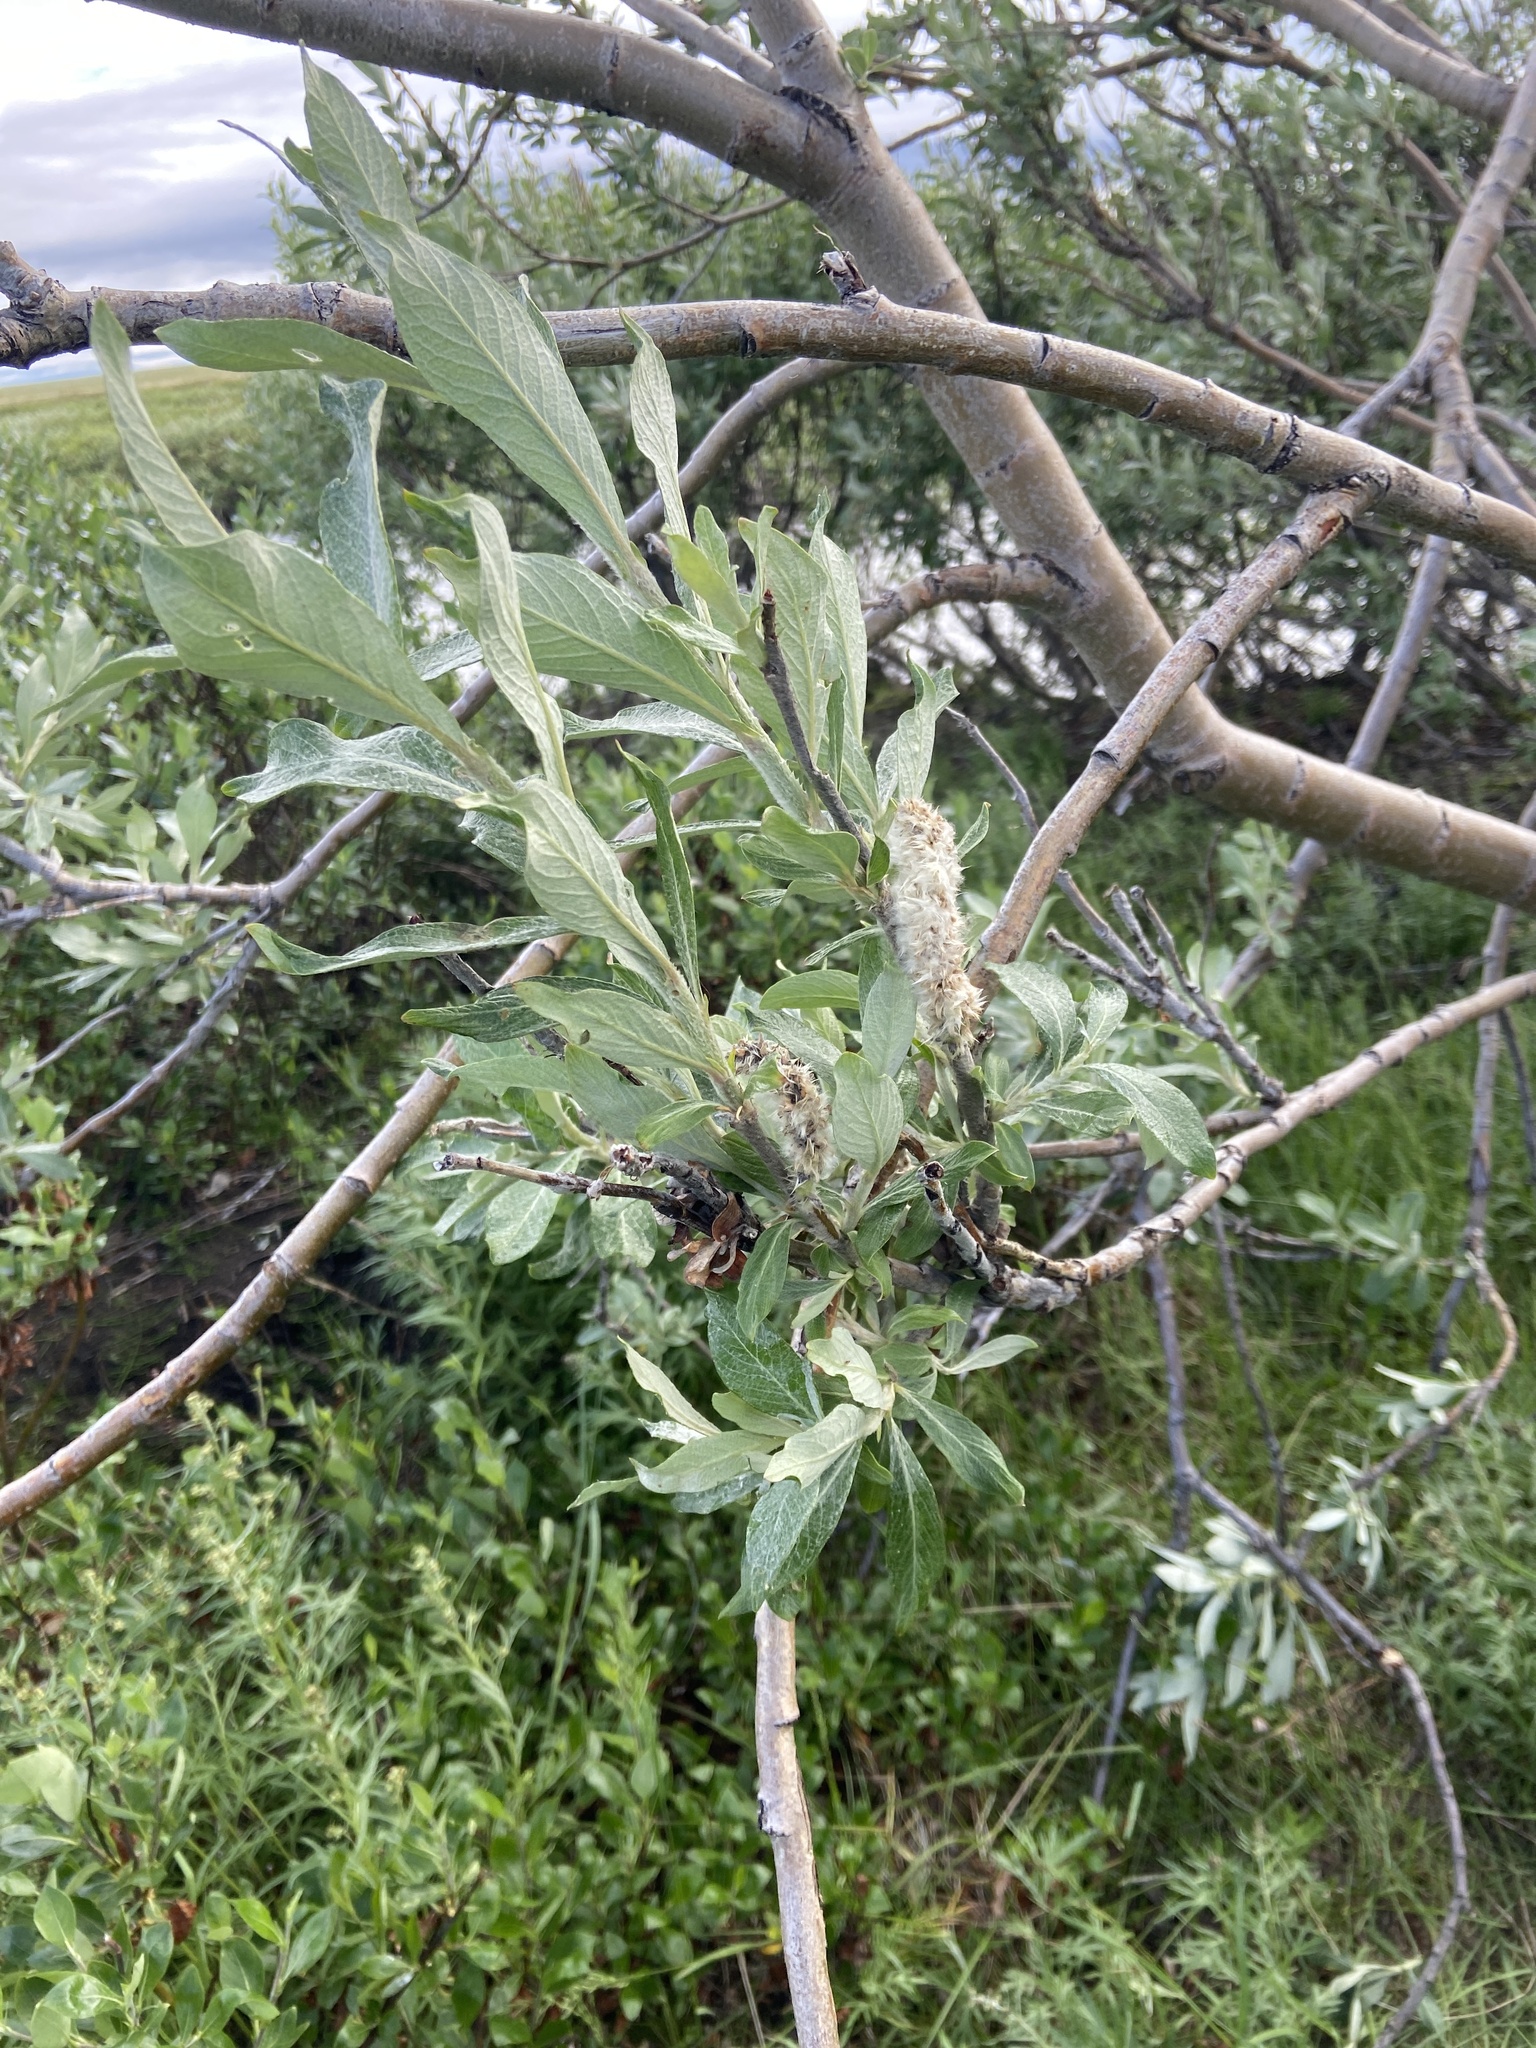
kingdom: Plantae
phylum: Tracheophyta
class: Magnoliopsida
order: Malpighiales
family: Salicaceae
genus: Salix
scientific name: Salix alaxensis
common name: Feltleaf willow
